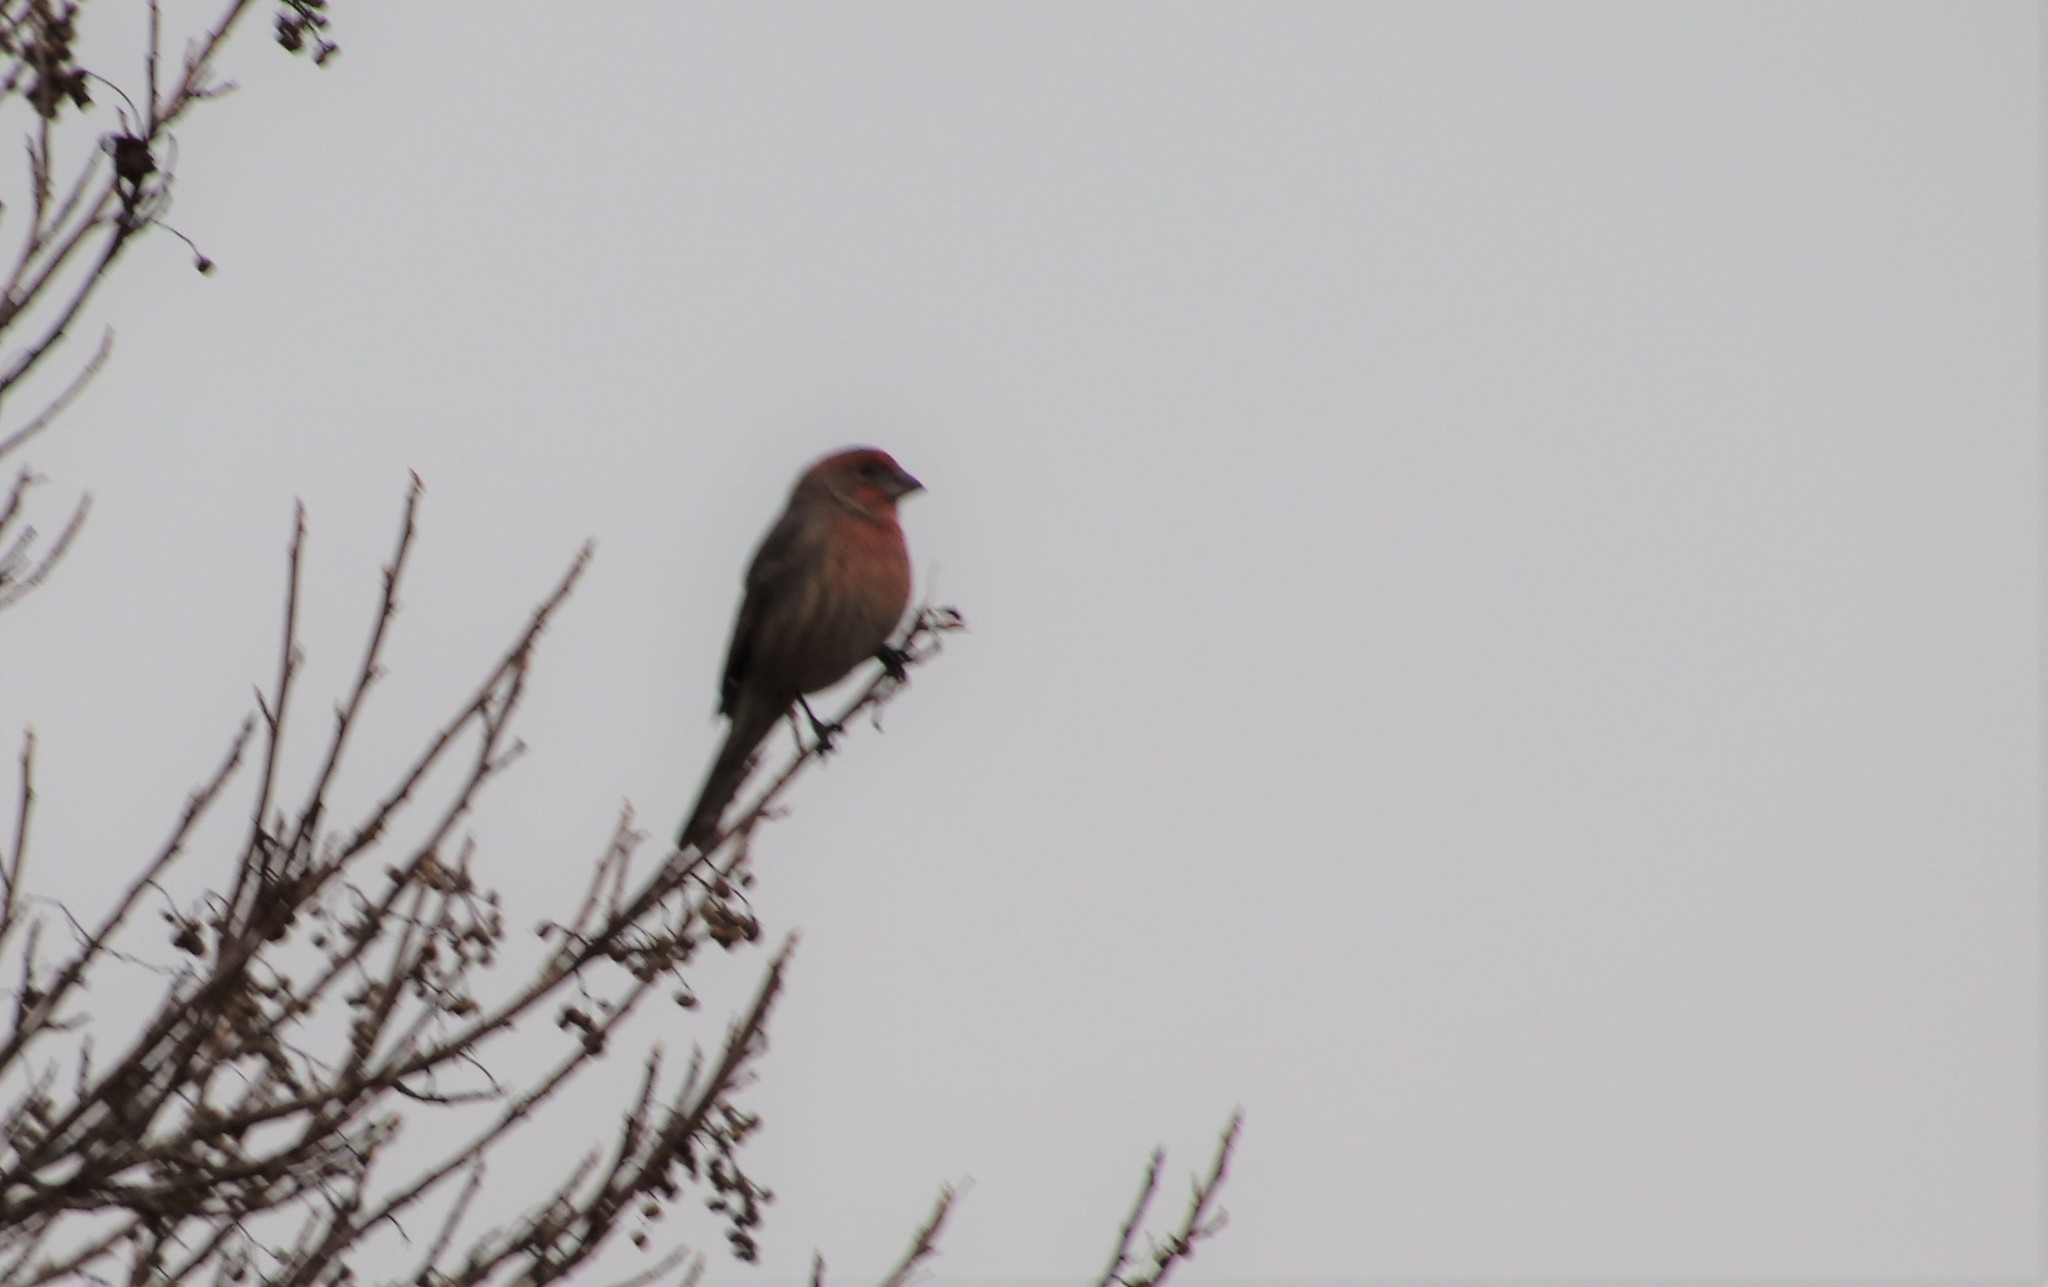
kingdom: Animalia
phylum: Chordata
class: Aves
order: Passeriformes
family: Fringillidae
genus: Haemorhous
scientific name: Haemorhous mexicanus
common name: House finch
